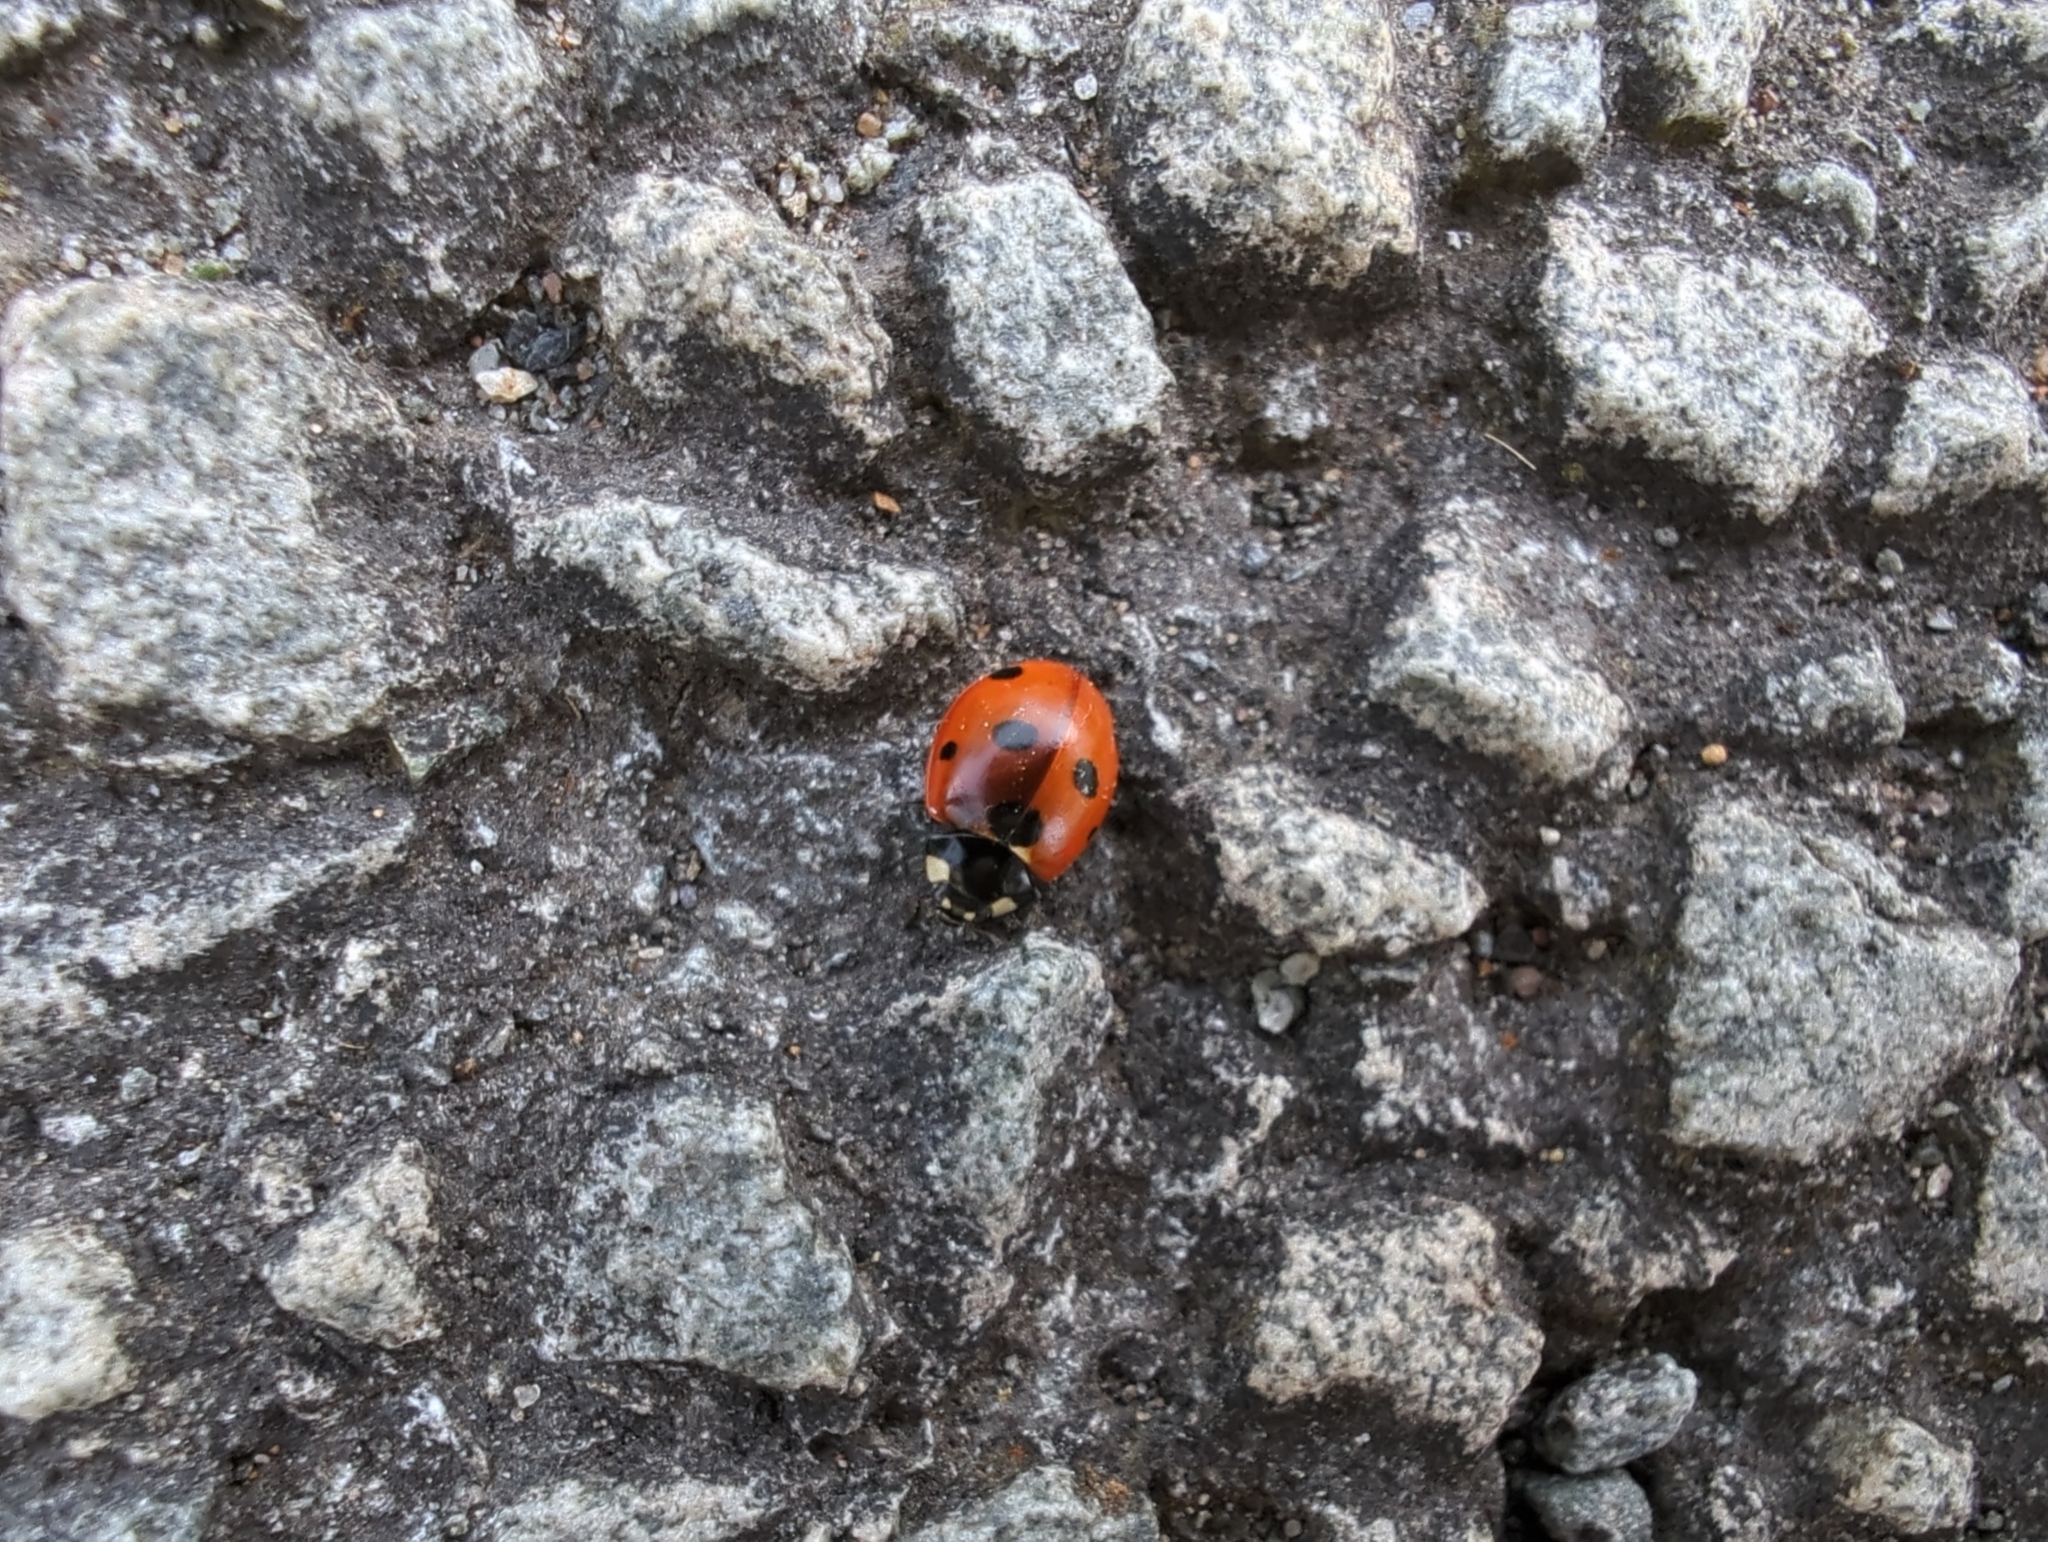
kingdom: Animalia
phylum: Arthropoda
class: Insecta
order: Coleoptera
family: Coccinellidae
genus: Coccinella
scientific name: Coccinella septempunctata
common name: Sevenspotted lady beetle
